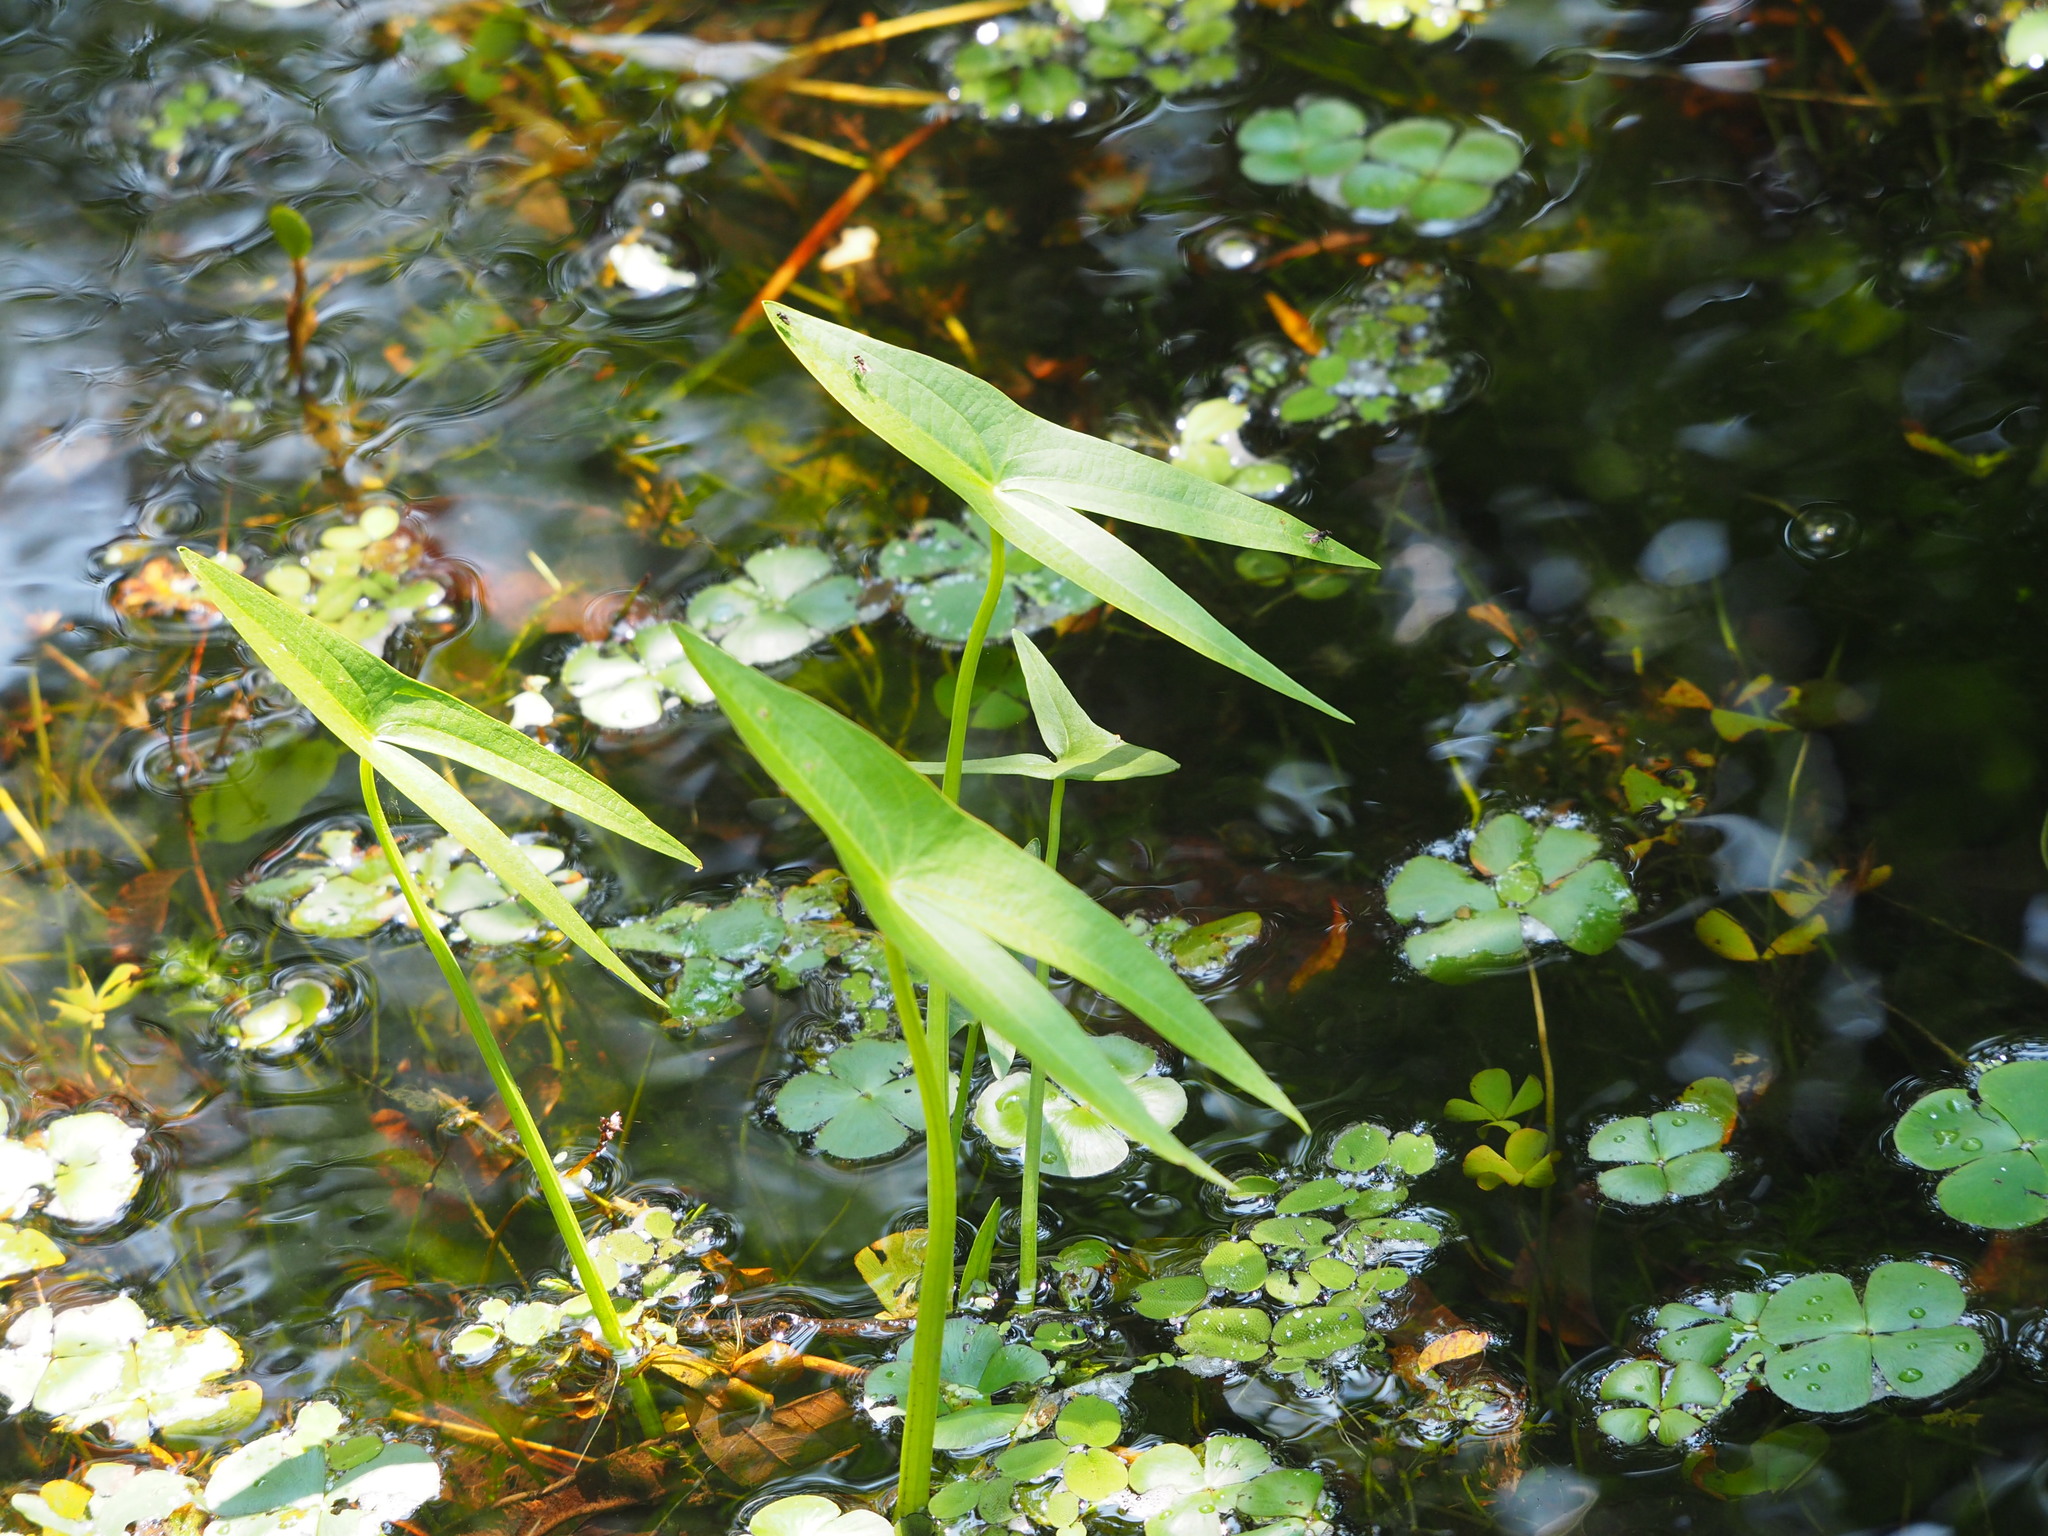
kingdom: Plantae
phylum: Tracheophyta
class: Liliopsida
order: Alismatales
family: Alismataceae
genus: Sagittaria
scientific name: Sagittaria trifolia
